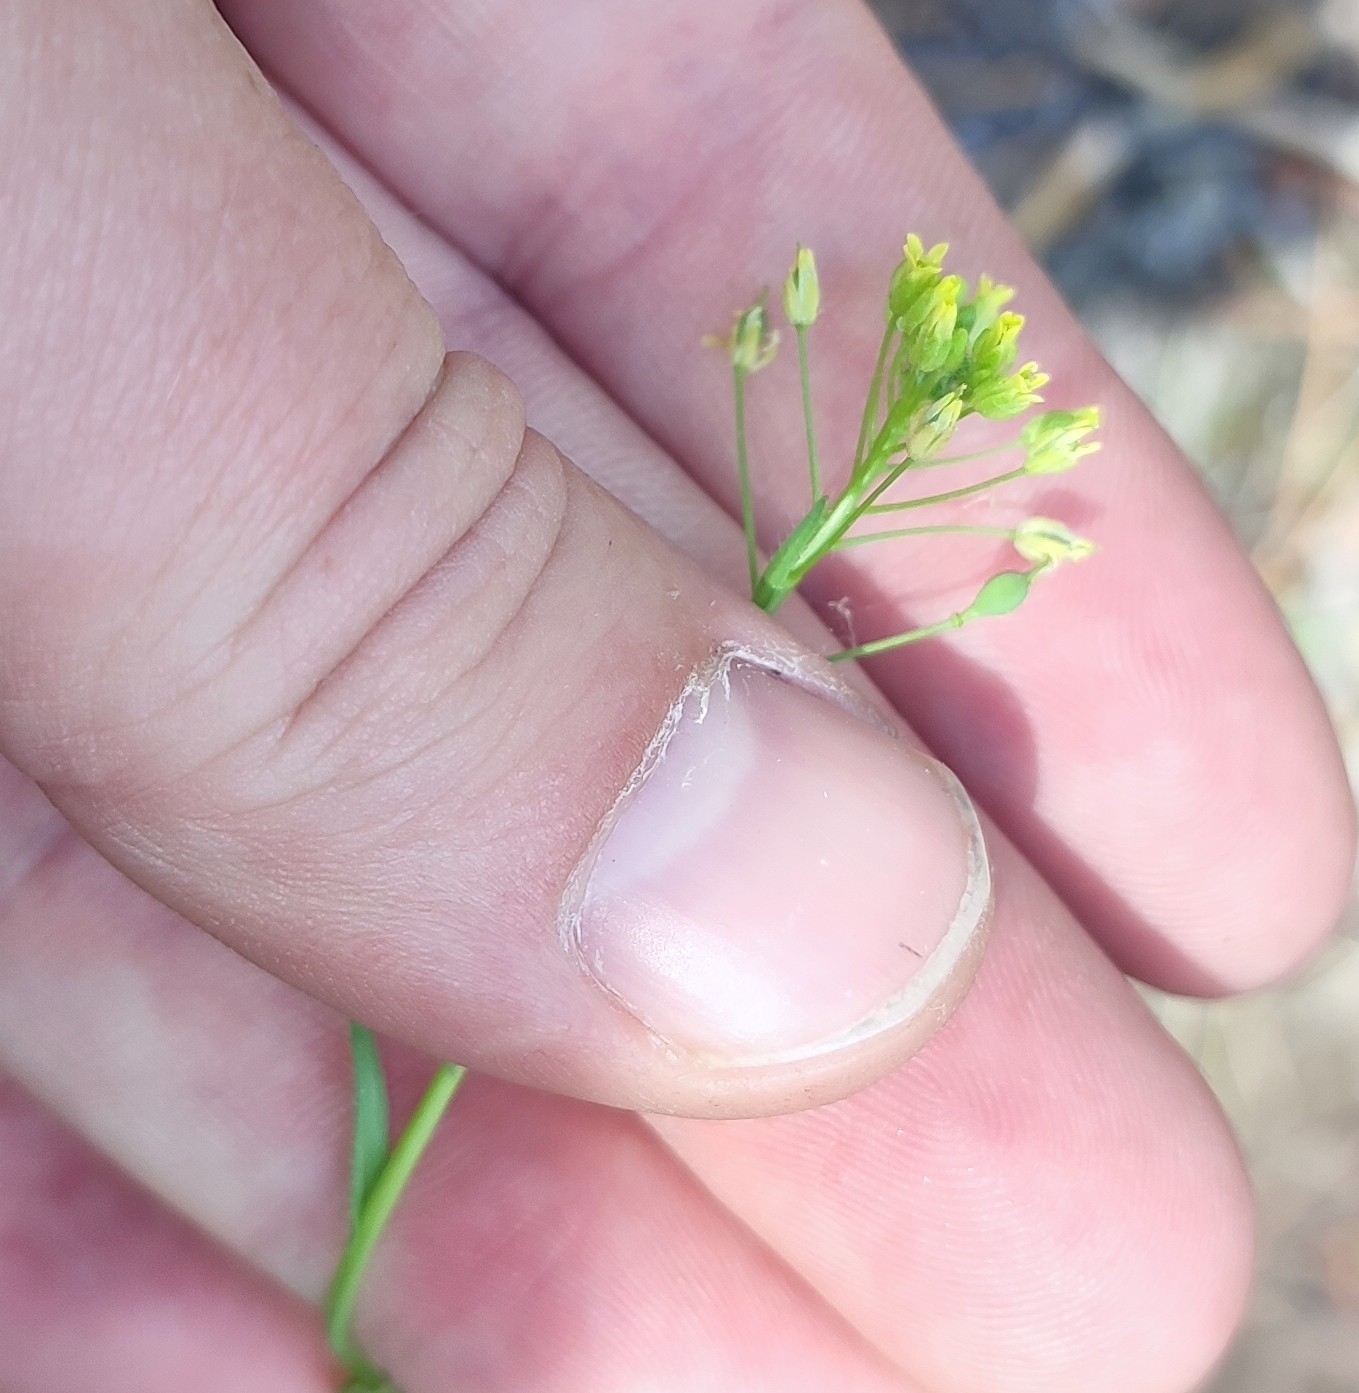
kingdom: Plantae
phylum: Tracheophyta
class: Magnoliopsida
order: Brassicales
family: Brassicaceae
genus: Camelina
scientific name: Camelina microcarpa
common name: Lesser gold-of-pleasure
